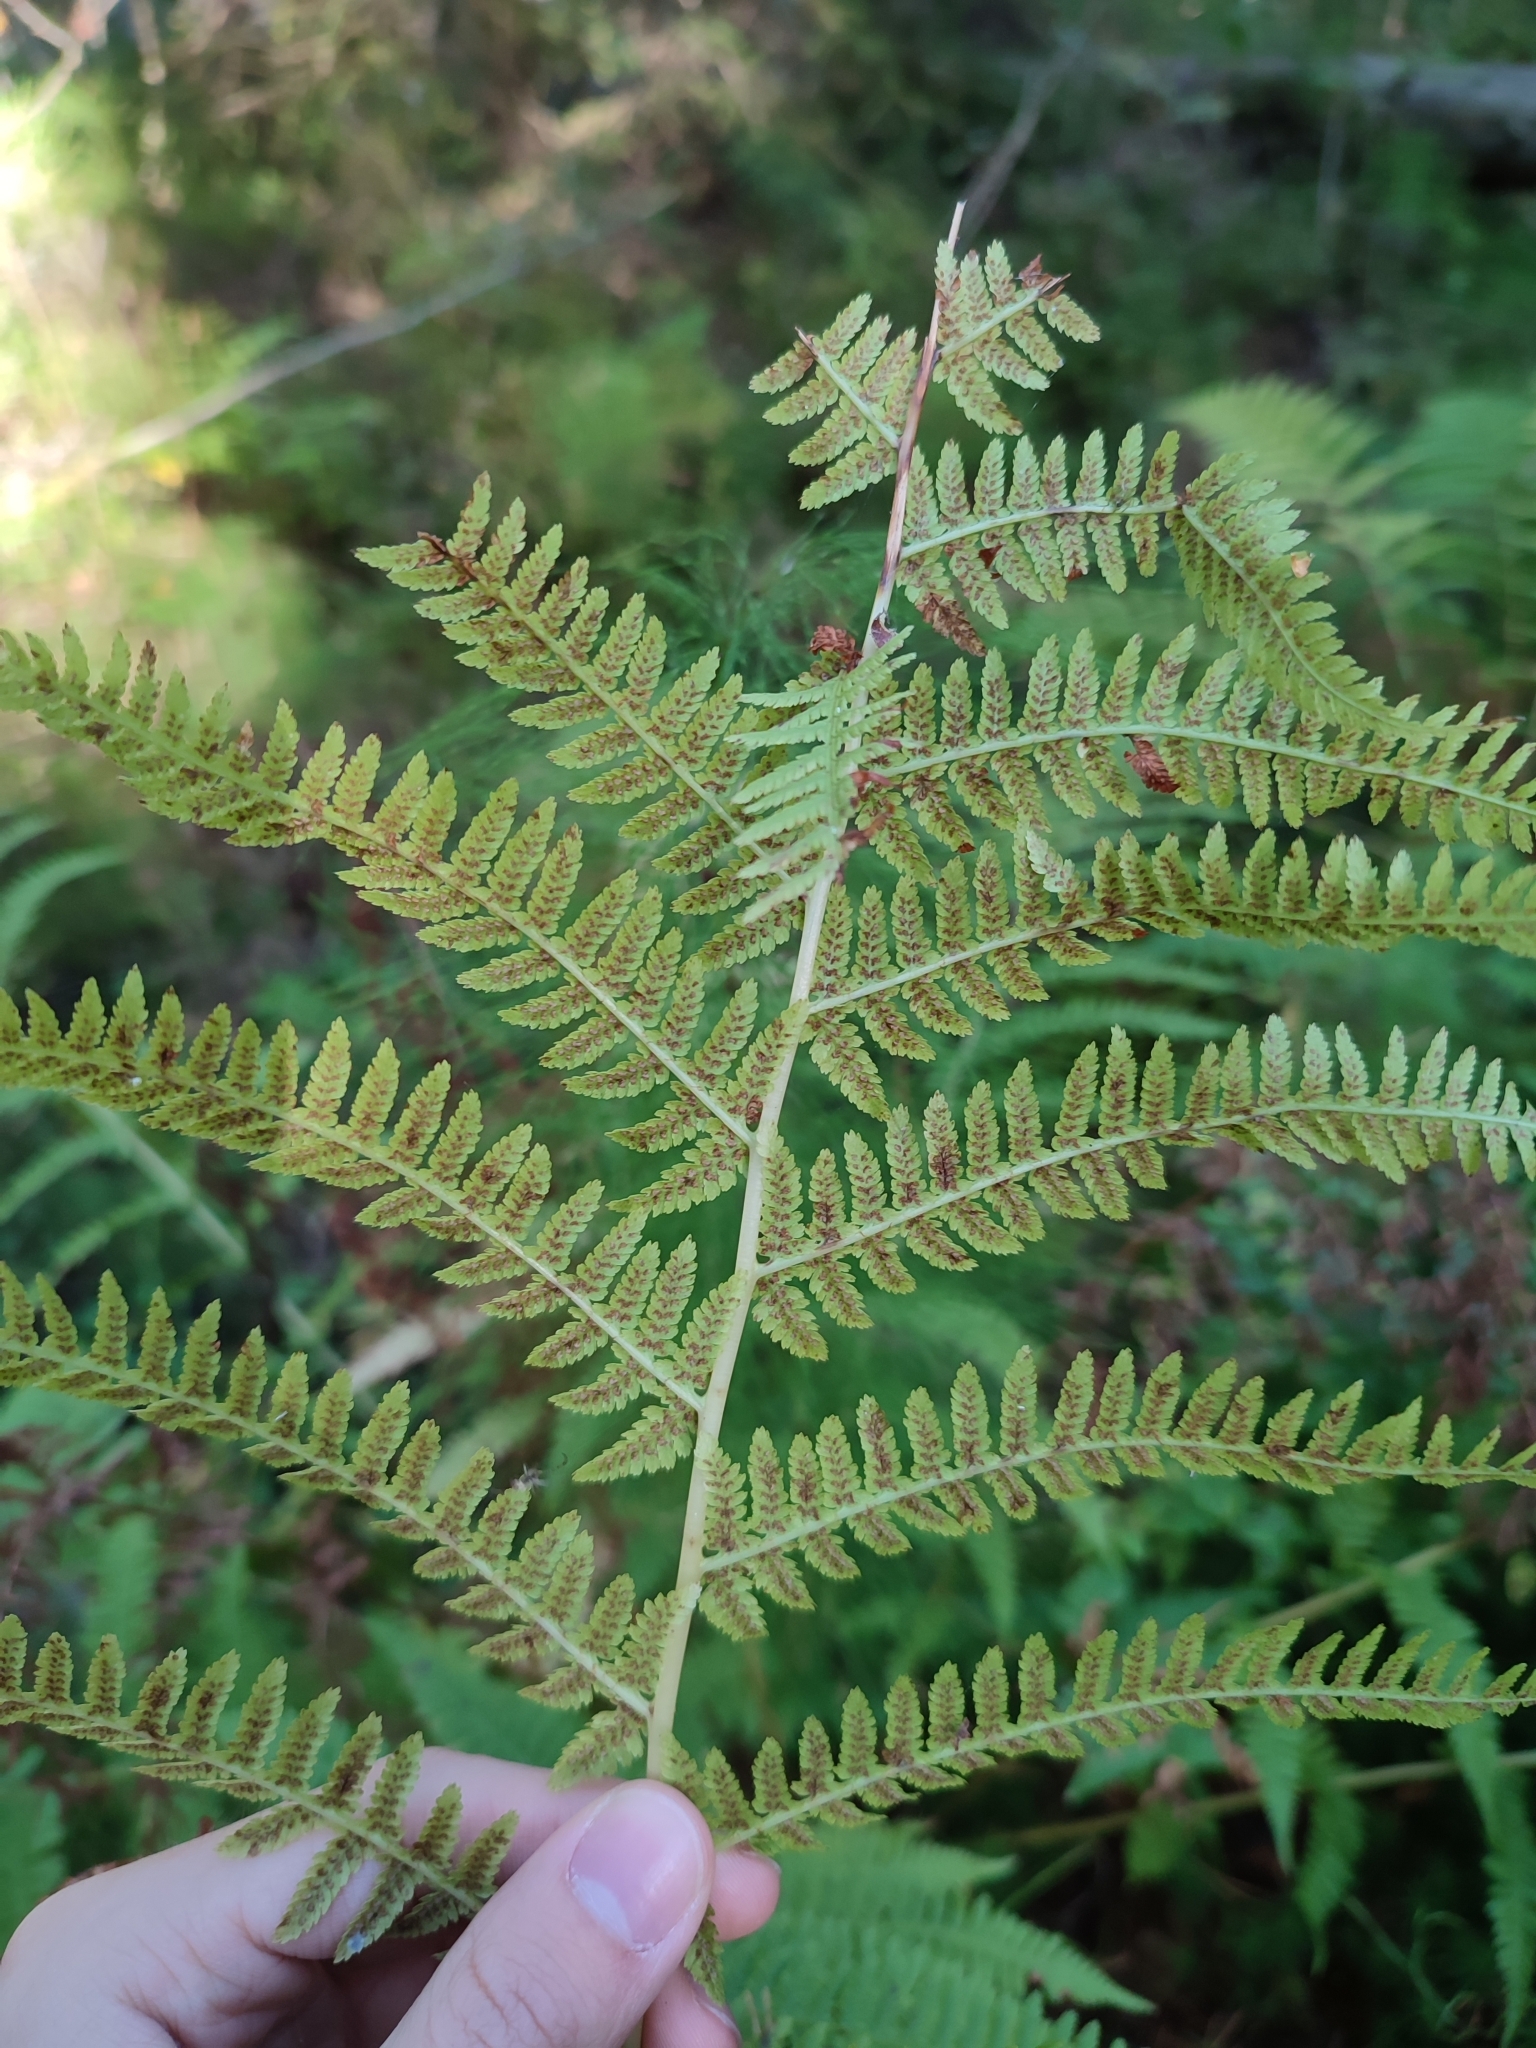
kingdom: Plantae
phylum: Tracheophyta
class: Polypodiopsida
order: Polypodiales
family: Athyriaceae
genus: Athyrium
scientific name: Athyrium filix-femina
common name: Lady fern
